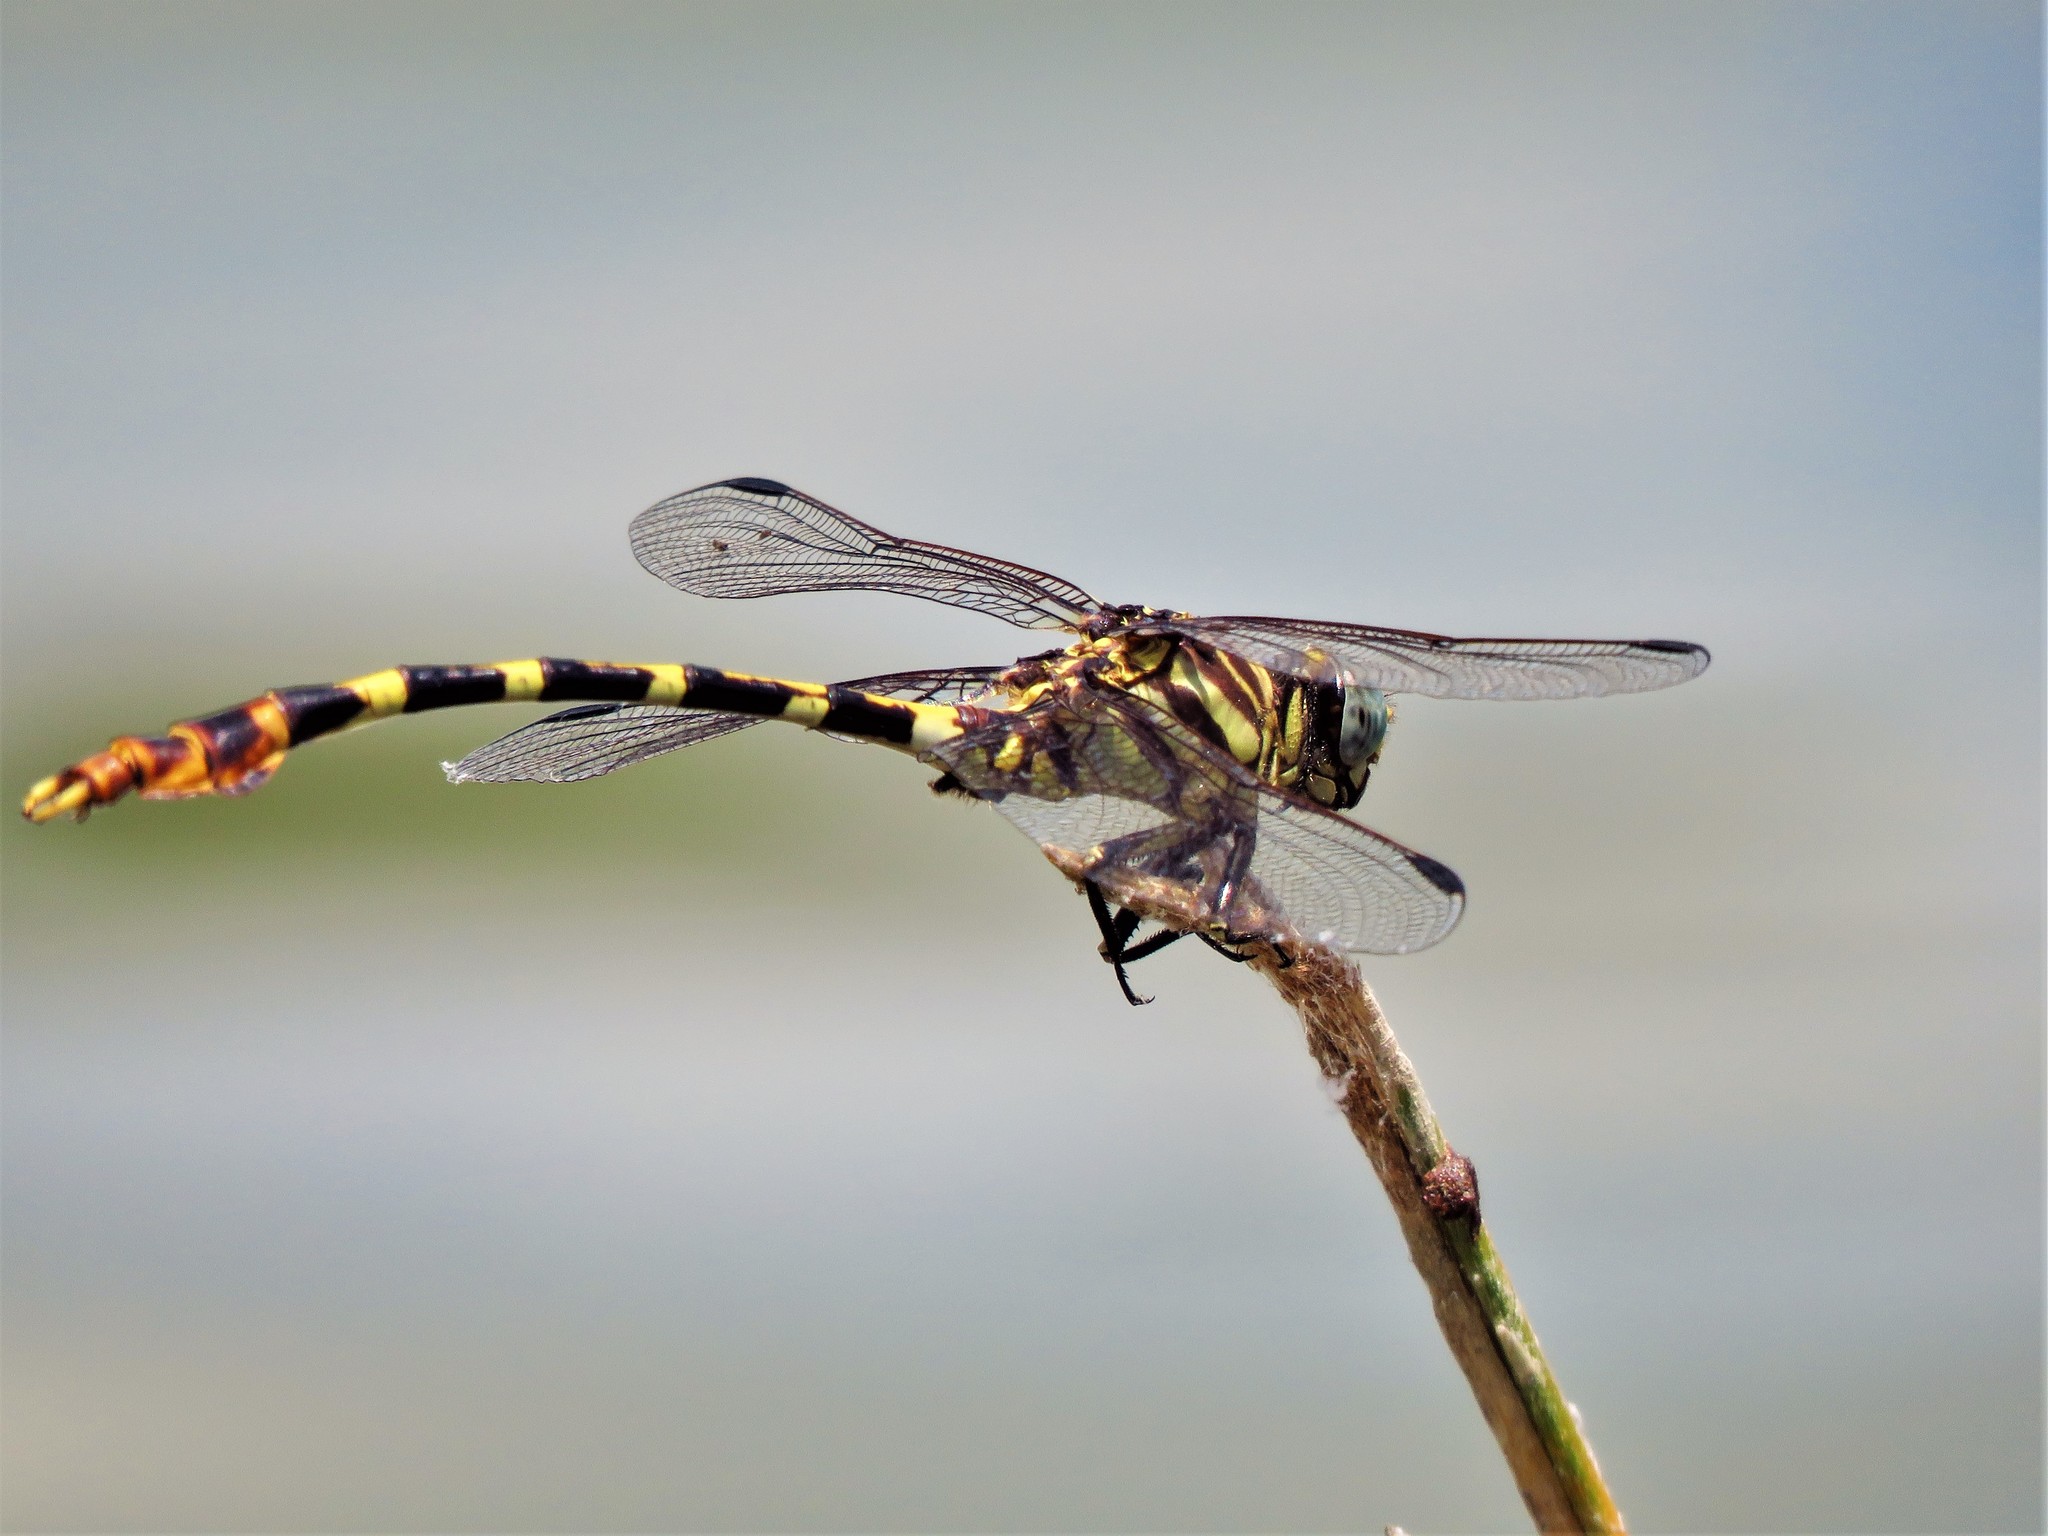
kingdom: Animalia
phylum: Arthropoda
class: Insecta
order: Odonata
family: Gomphidae
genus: Phyllogomphoides
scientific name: Phyllogomphoides stigmatus
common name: Four-striped leaftail
